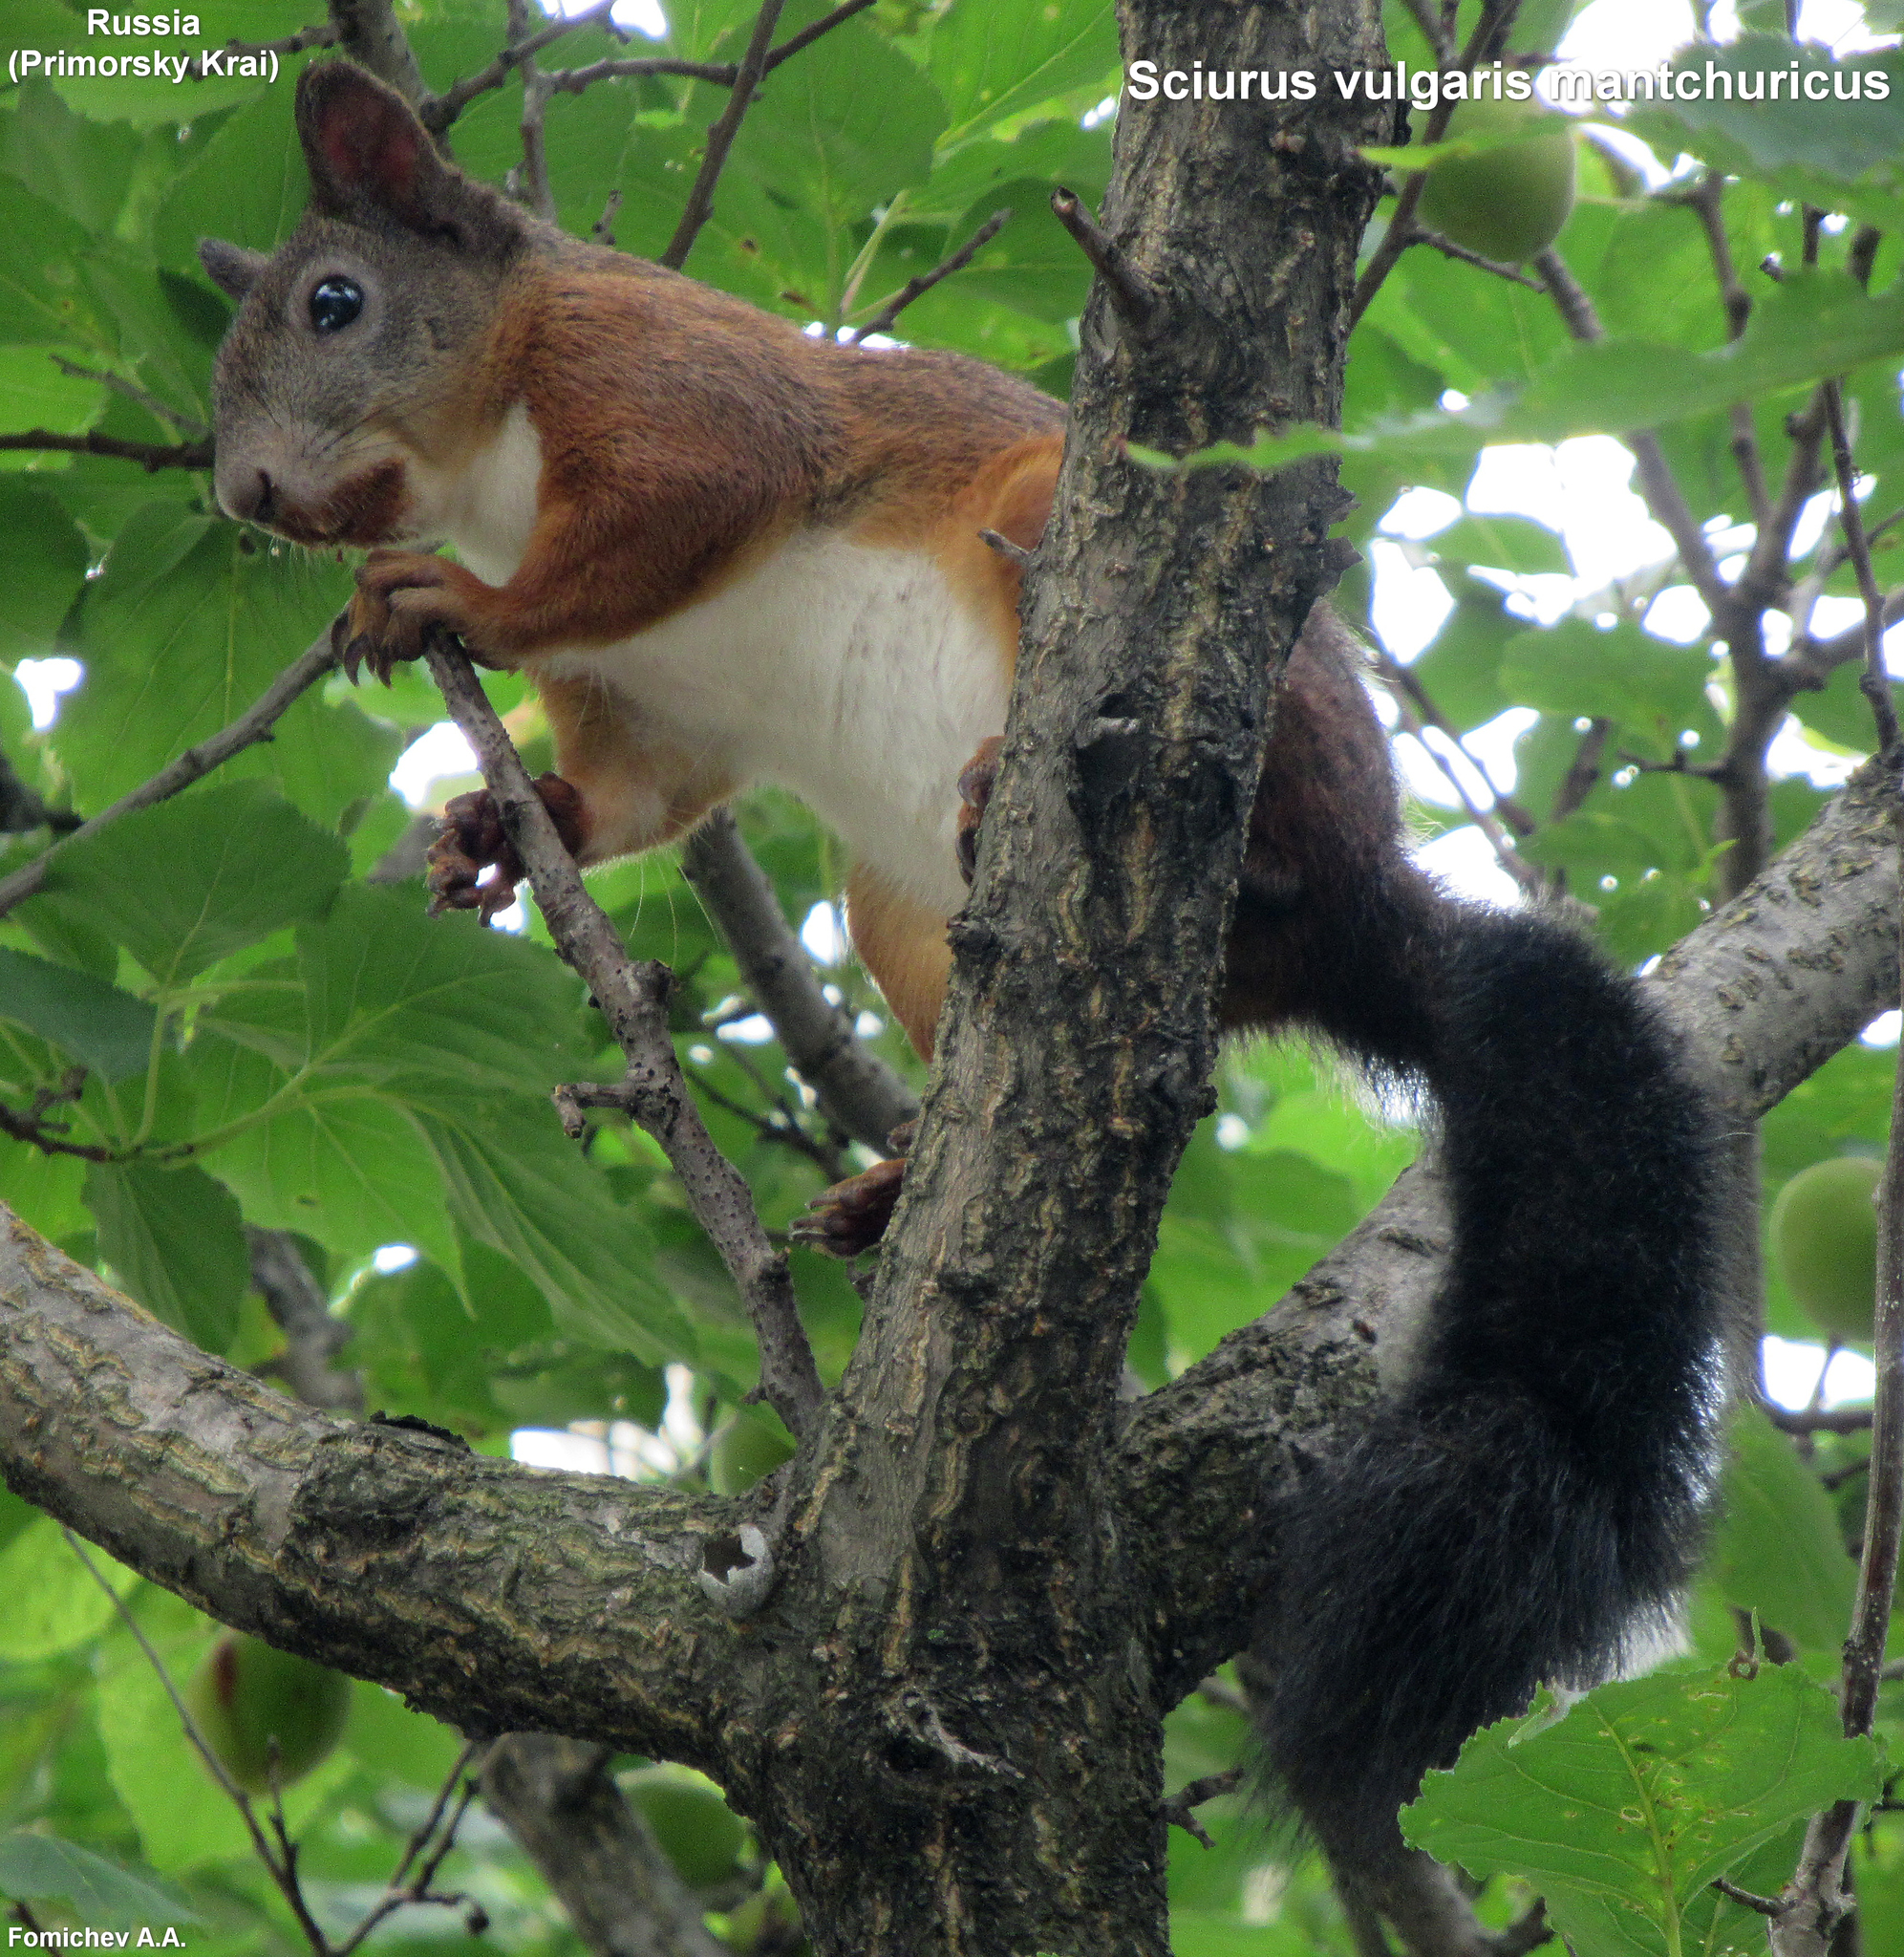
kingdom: Animalia
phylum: Chordata
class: Mammalia
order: Rodentia
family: Sciuridae
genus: Sciurus
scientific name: Sciurus vulgaris
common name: Eurasian red squirrel
